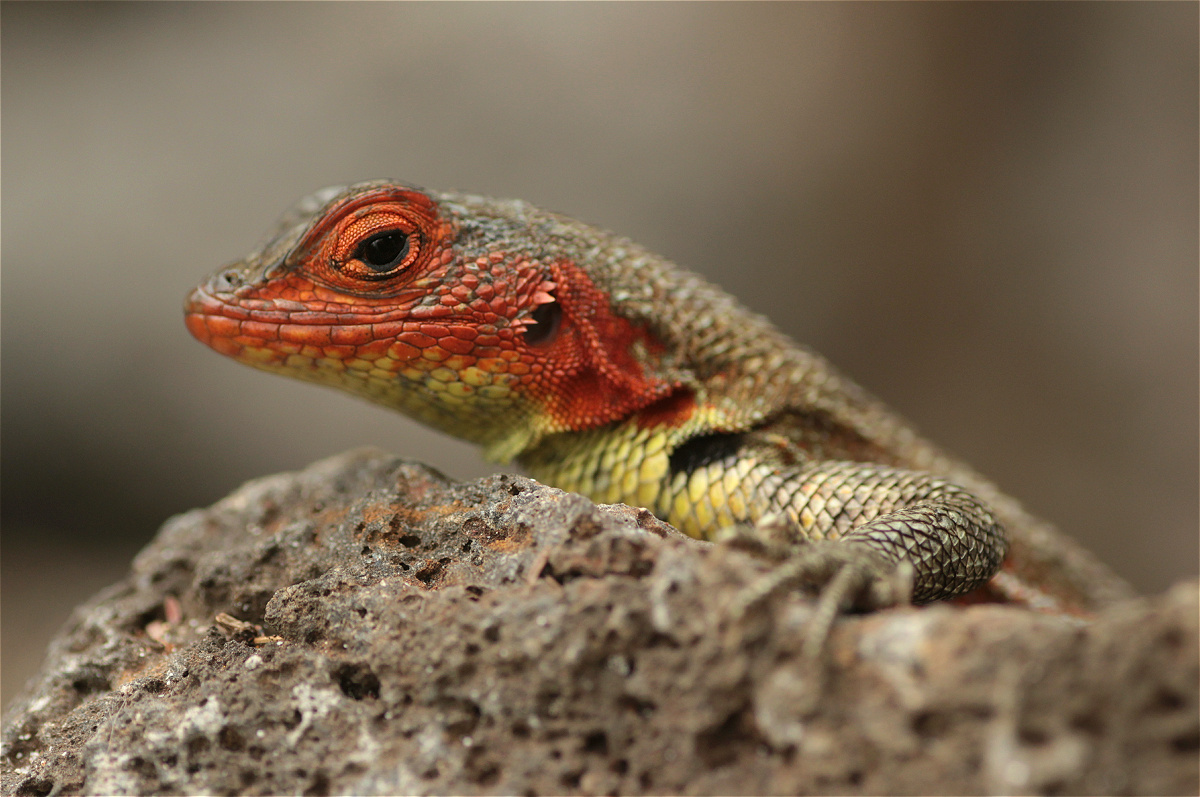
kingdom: Animalia
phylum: Chordata
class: Squamata
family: Tropiduridae
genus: Microlophus
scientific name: Microlophus indefatigabilis
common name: Galapagos lava lizard
